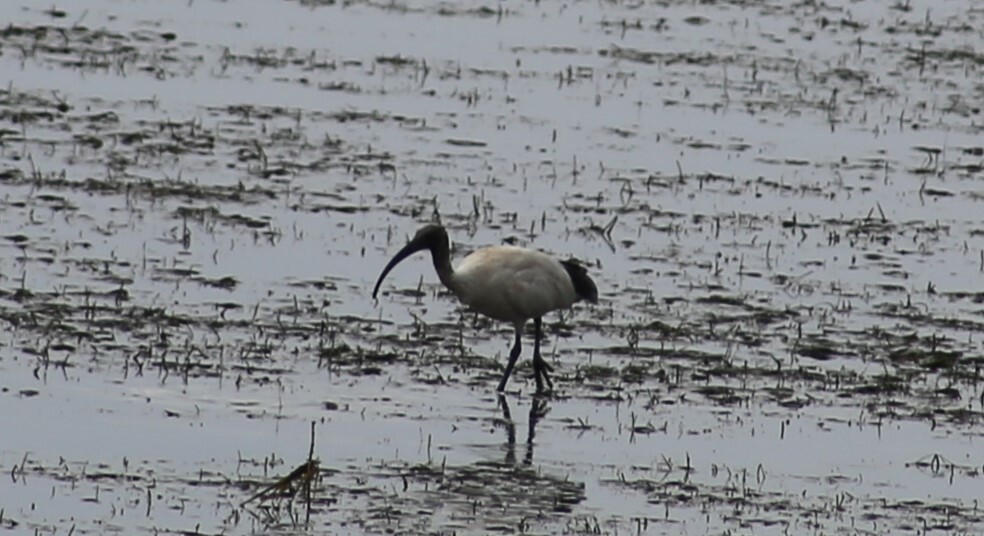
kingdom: Animalia
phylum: Chordata
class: Aves
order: Pelecaniformes
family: Threskiornithidae
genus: Threskiornis
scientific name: Threskiornis molucca
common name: Australian white ibis
